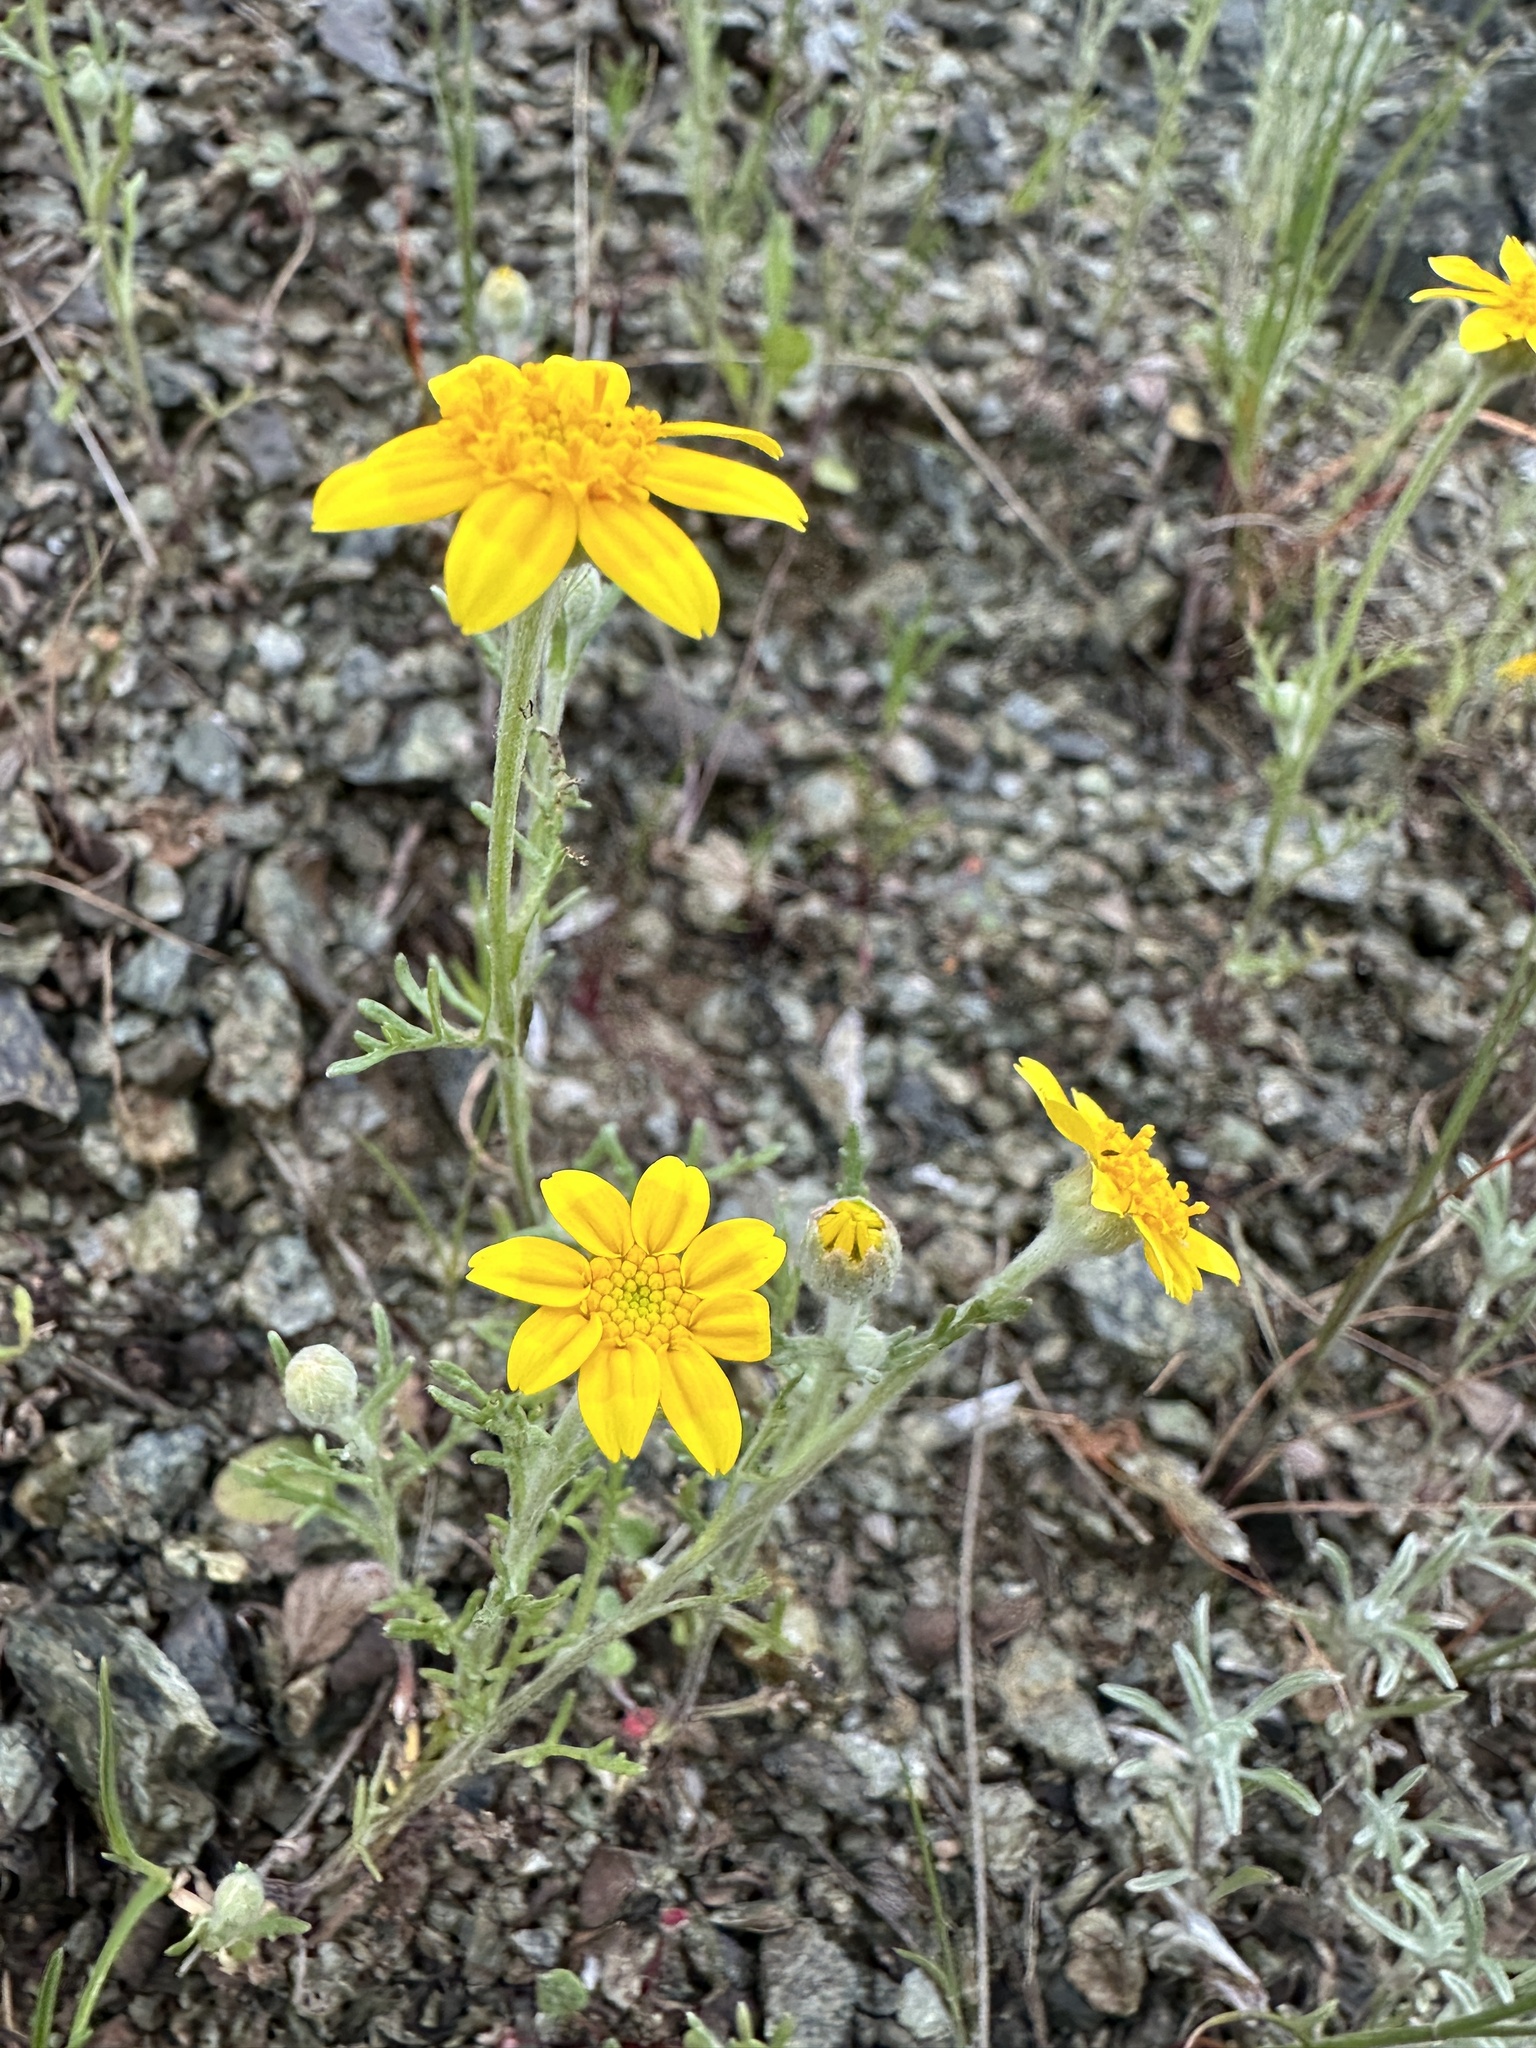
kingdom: Plantae
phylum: Tracheophyta
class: Magnoliopsida
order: Asterales
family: Asteraceae
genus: Pseudobahia
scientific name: Pseudobahia heermannii
